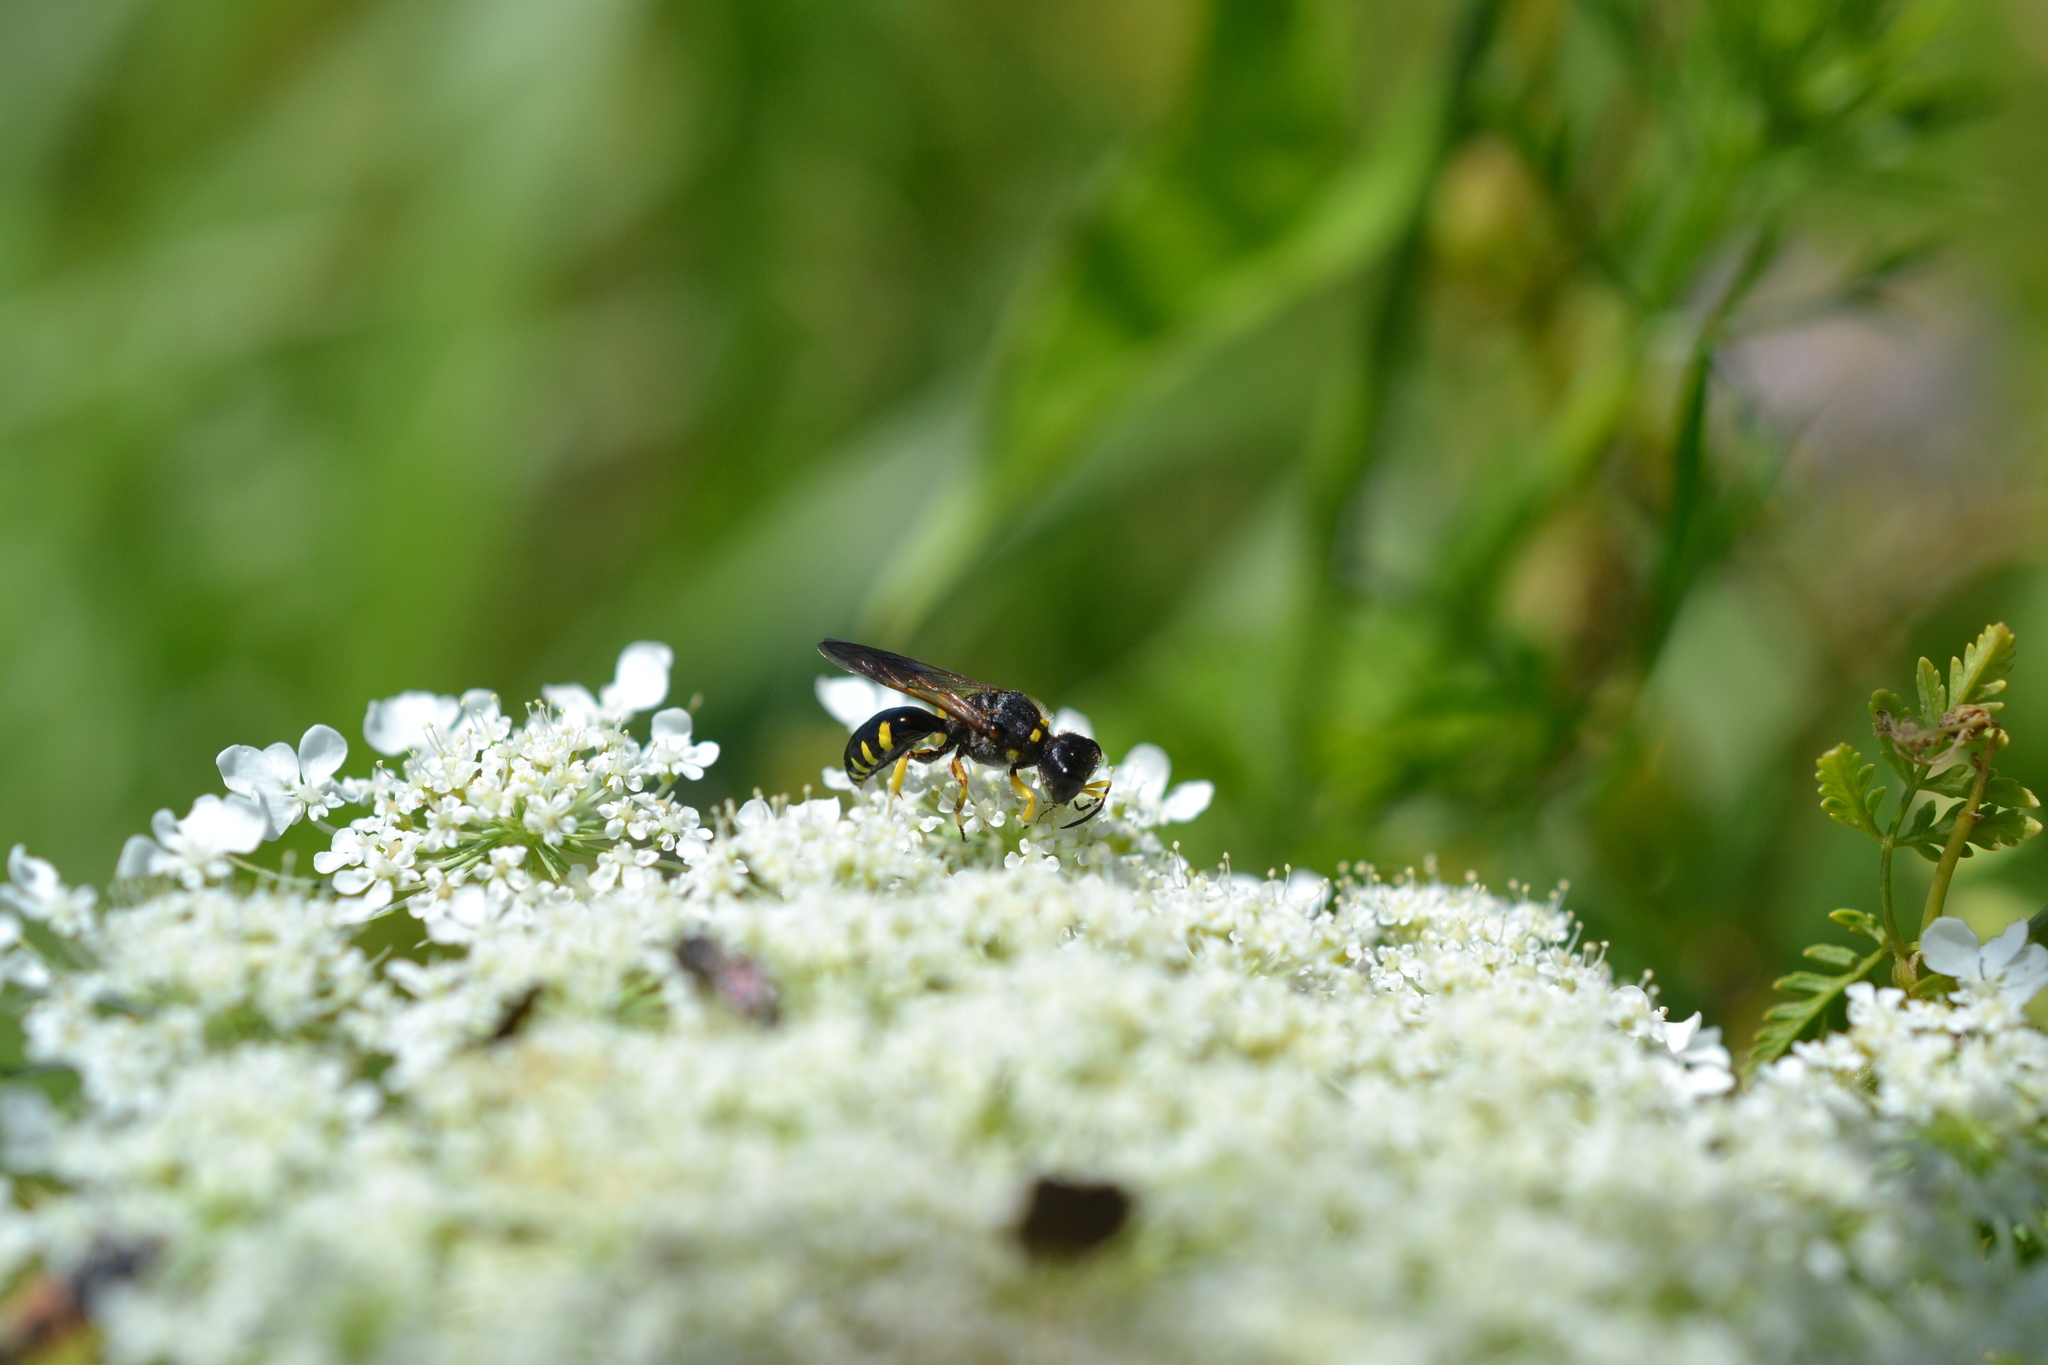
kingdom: Animalia
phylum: Arthropoda
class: Insecta
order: Hymenoptera
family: Crabronidae
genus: Ectemnius
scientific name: Ectemnius maculosus
